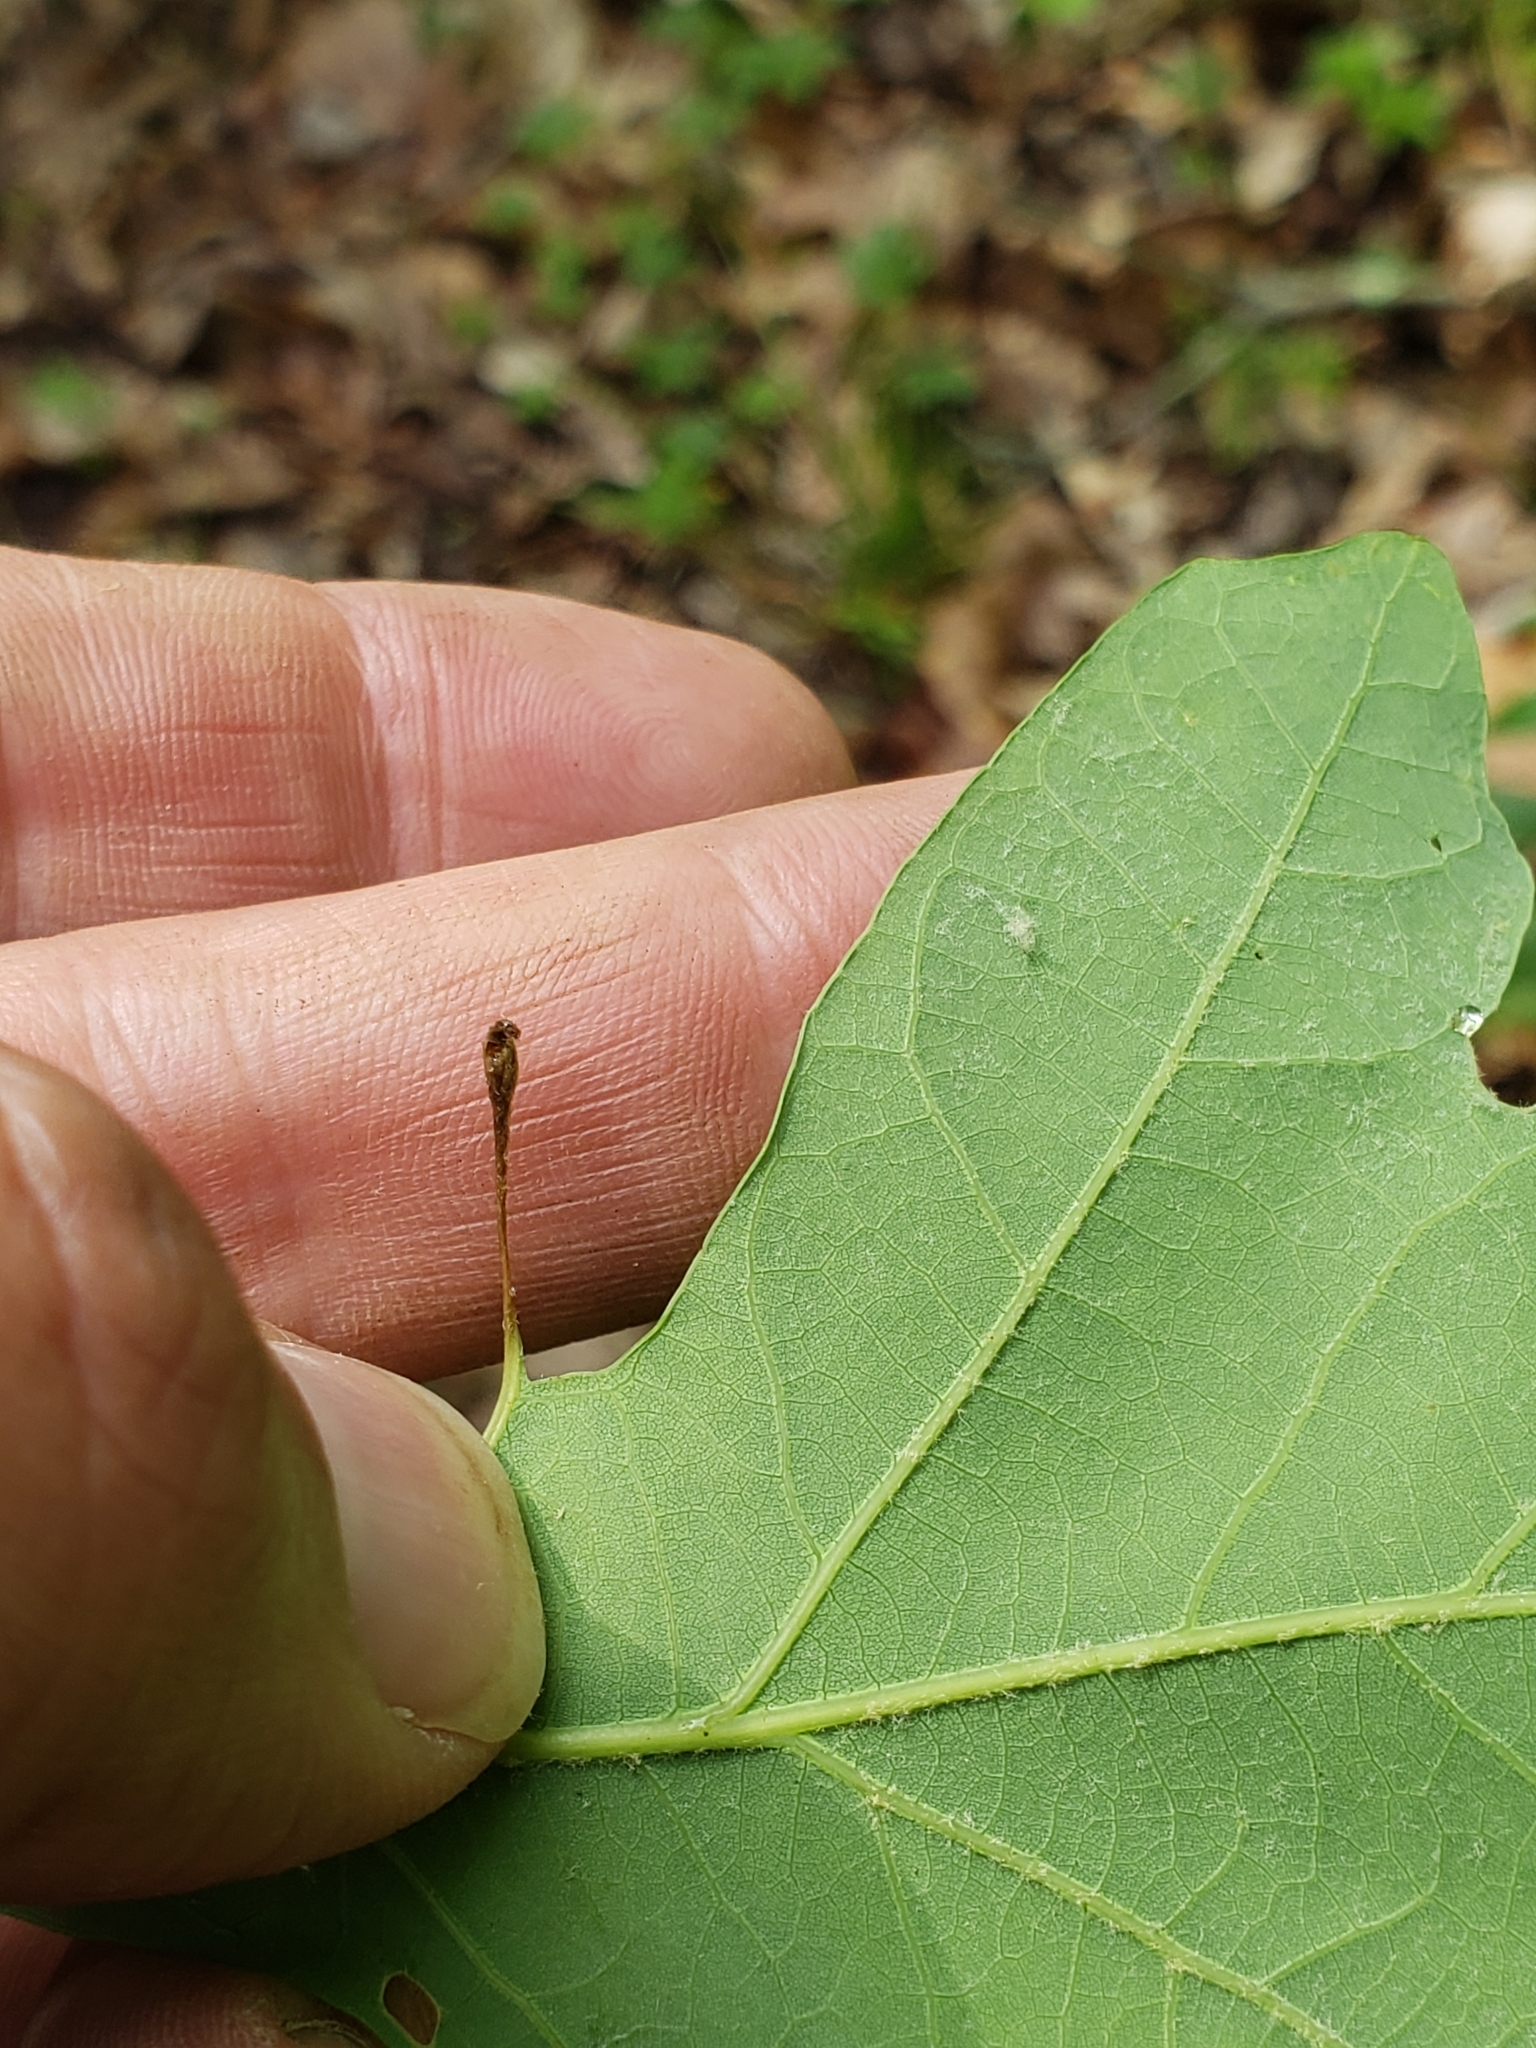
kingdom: Animalia
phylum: Arthropoda
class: Insecta
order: Hymenoptera
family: Cynipidae
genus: Andricus
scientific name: Andricus
